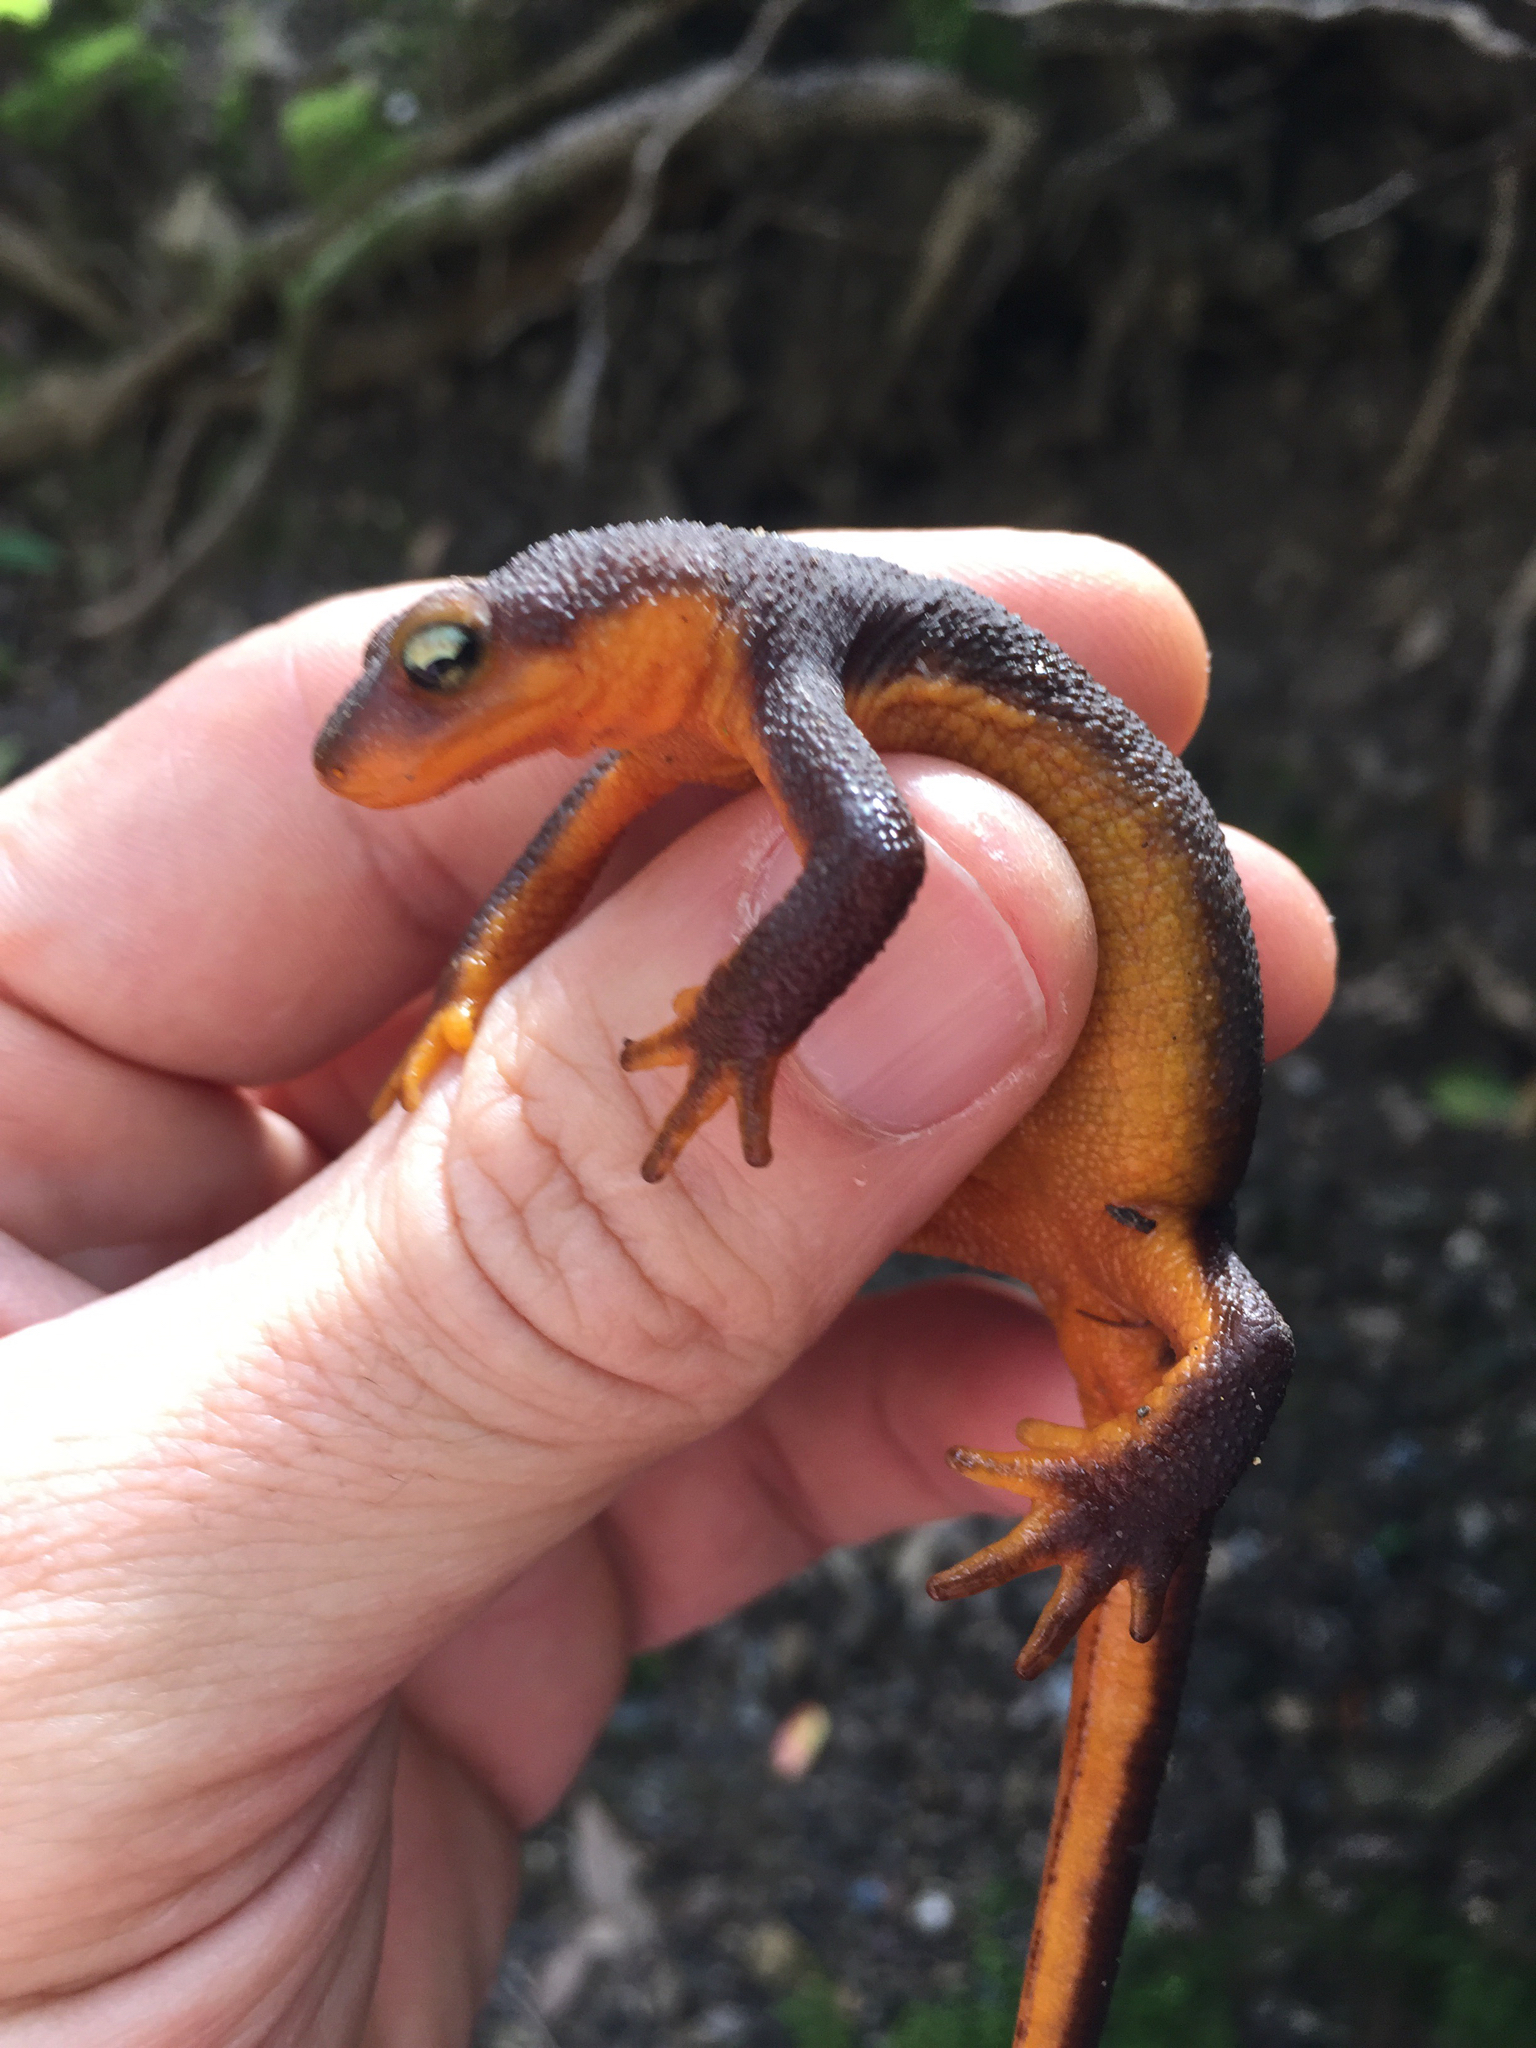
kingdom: Animalia
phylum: Chordata
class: Amphibia
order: Caudata
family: Salamandridae
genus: Taricha
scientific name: Taricha torosa
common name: California newt
